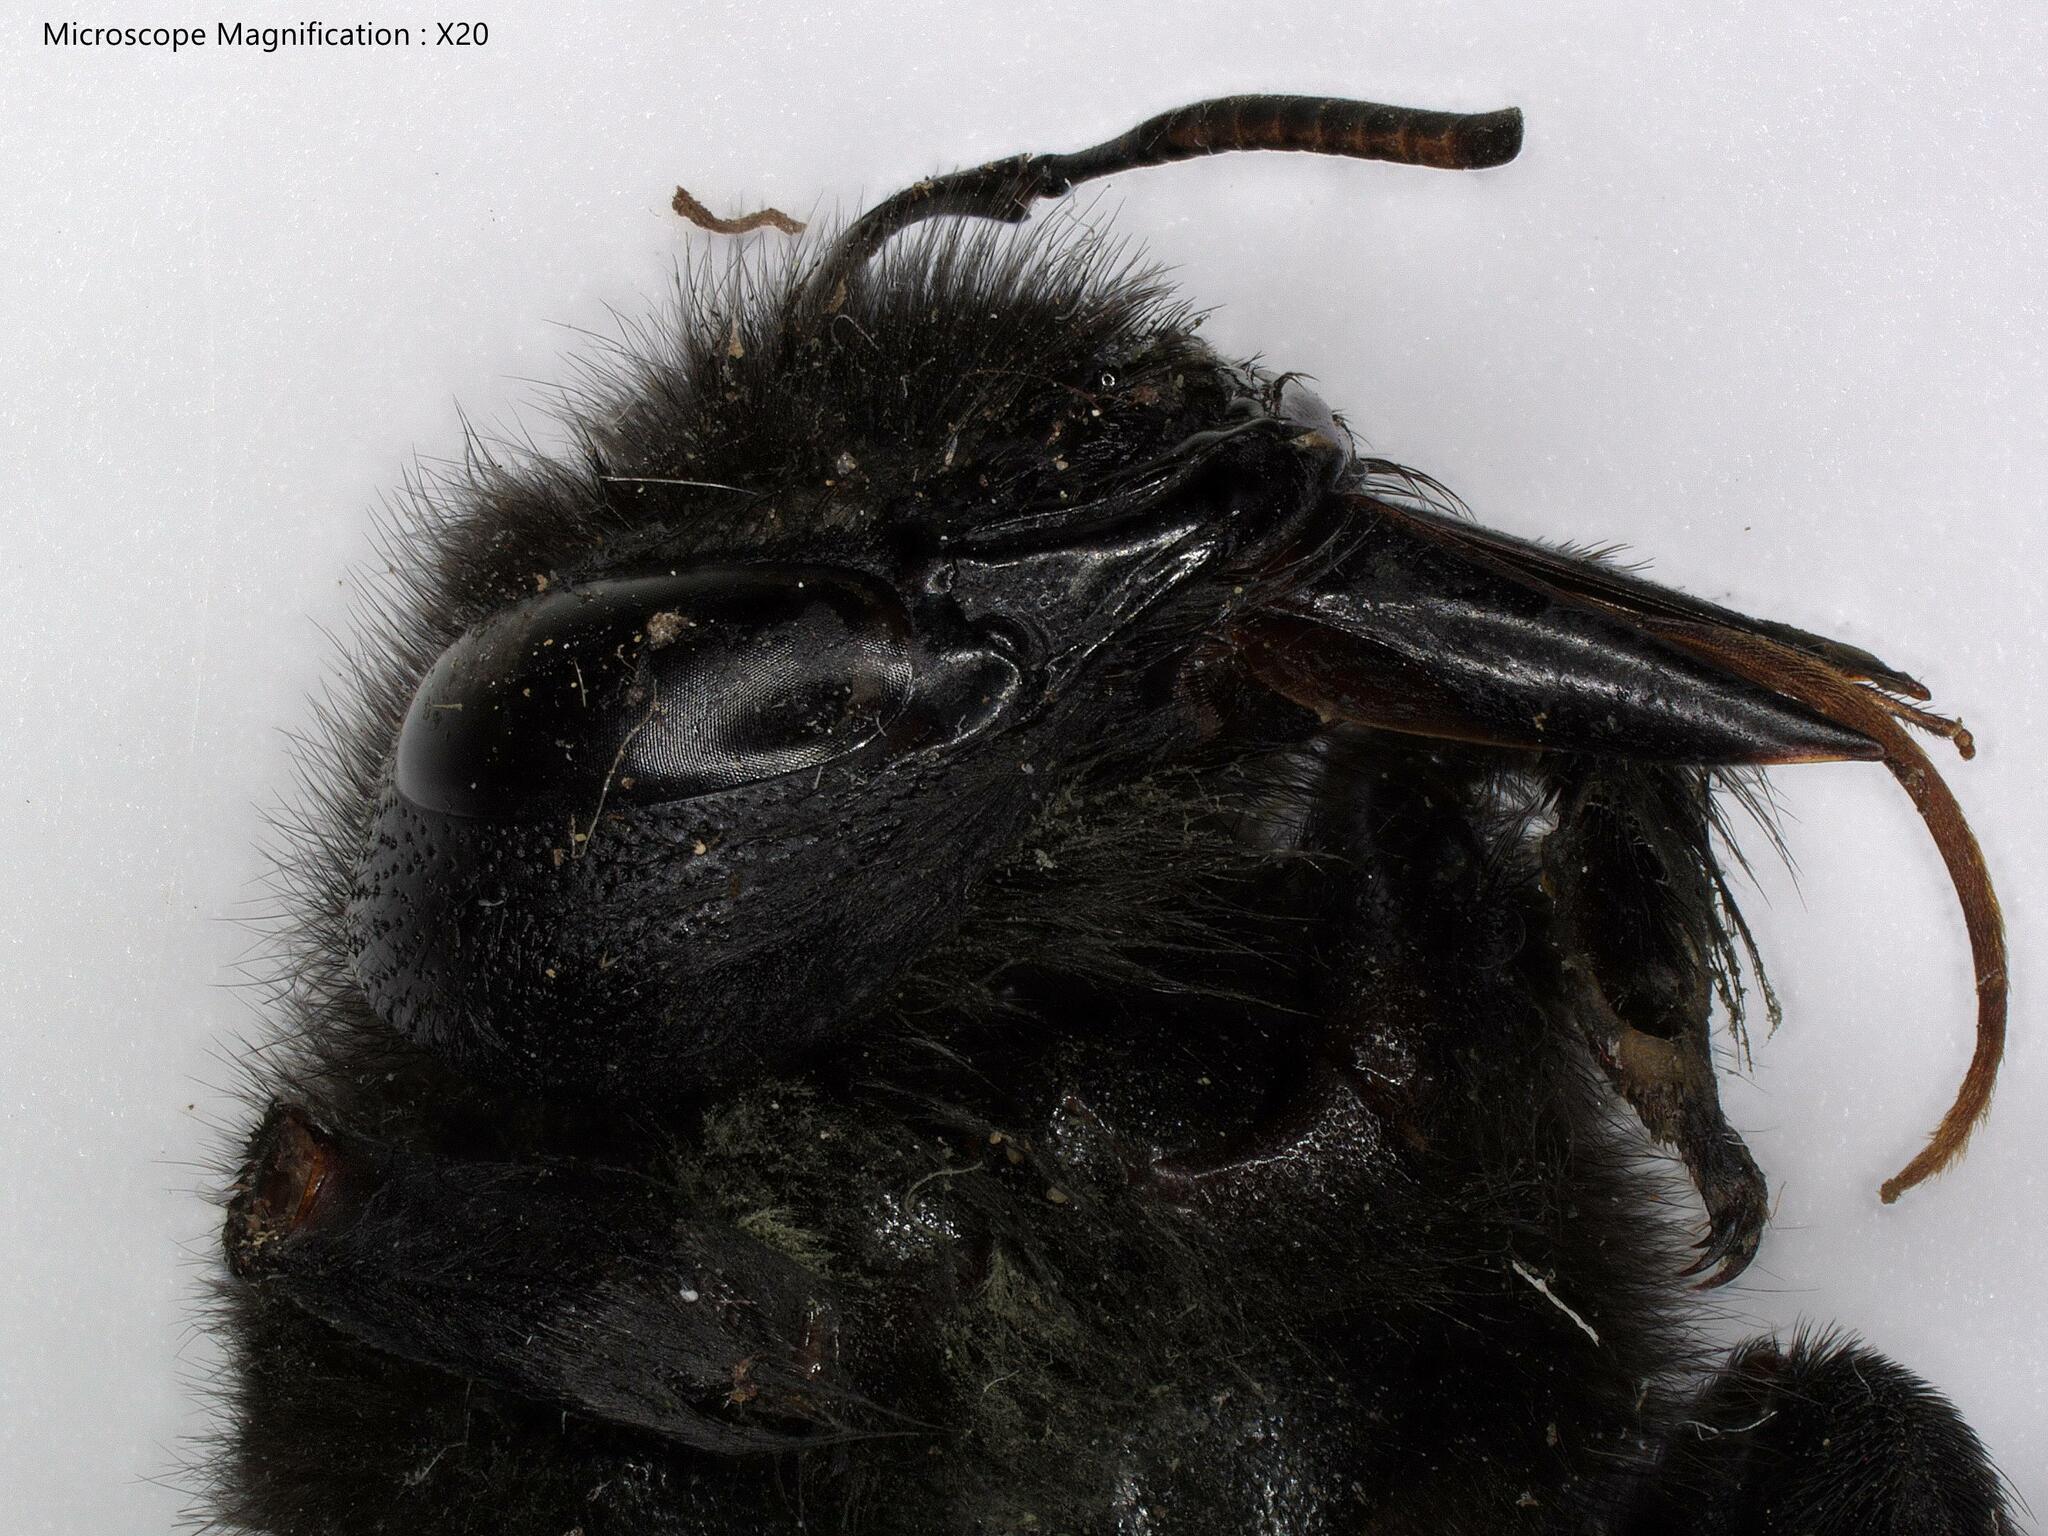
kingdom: Animalia
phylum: Arthropoda
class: Insecta
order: Hymenoptera
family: Apidae
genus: Xylocopa
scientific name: Xylocopa violacea
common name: Violet carpenter bee
